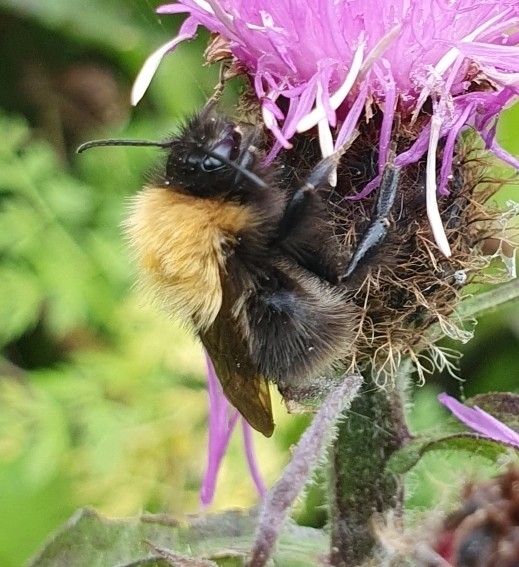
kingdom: Animalia
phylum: Arthropoda
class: Insecta
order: Hymenoptera
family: Apidae
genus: Bombus
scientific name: Bombus pascuorum
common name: Common carder bee
